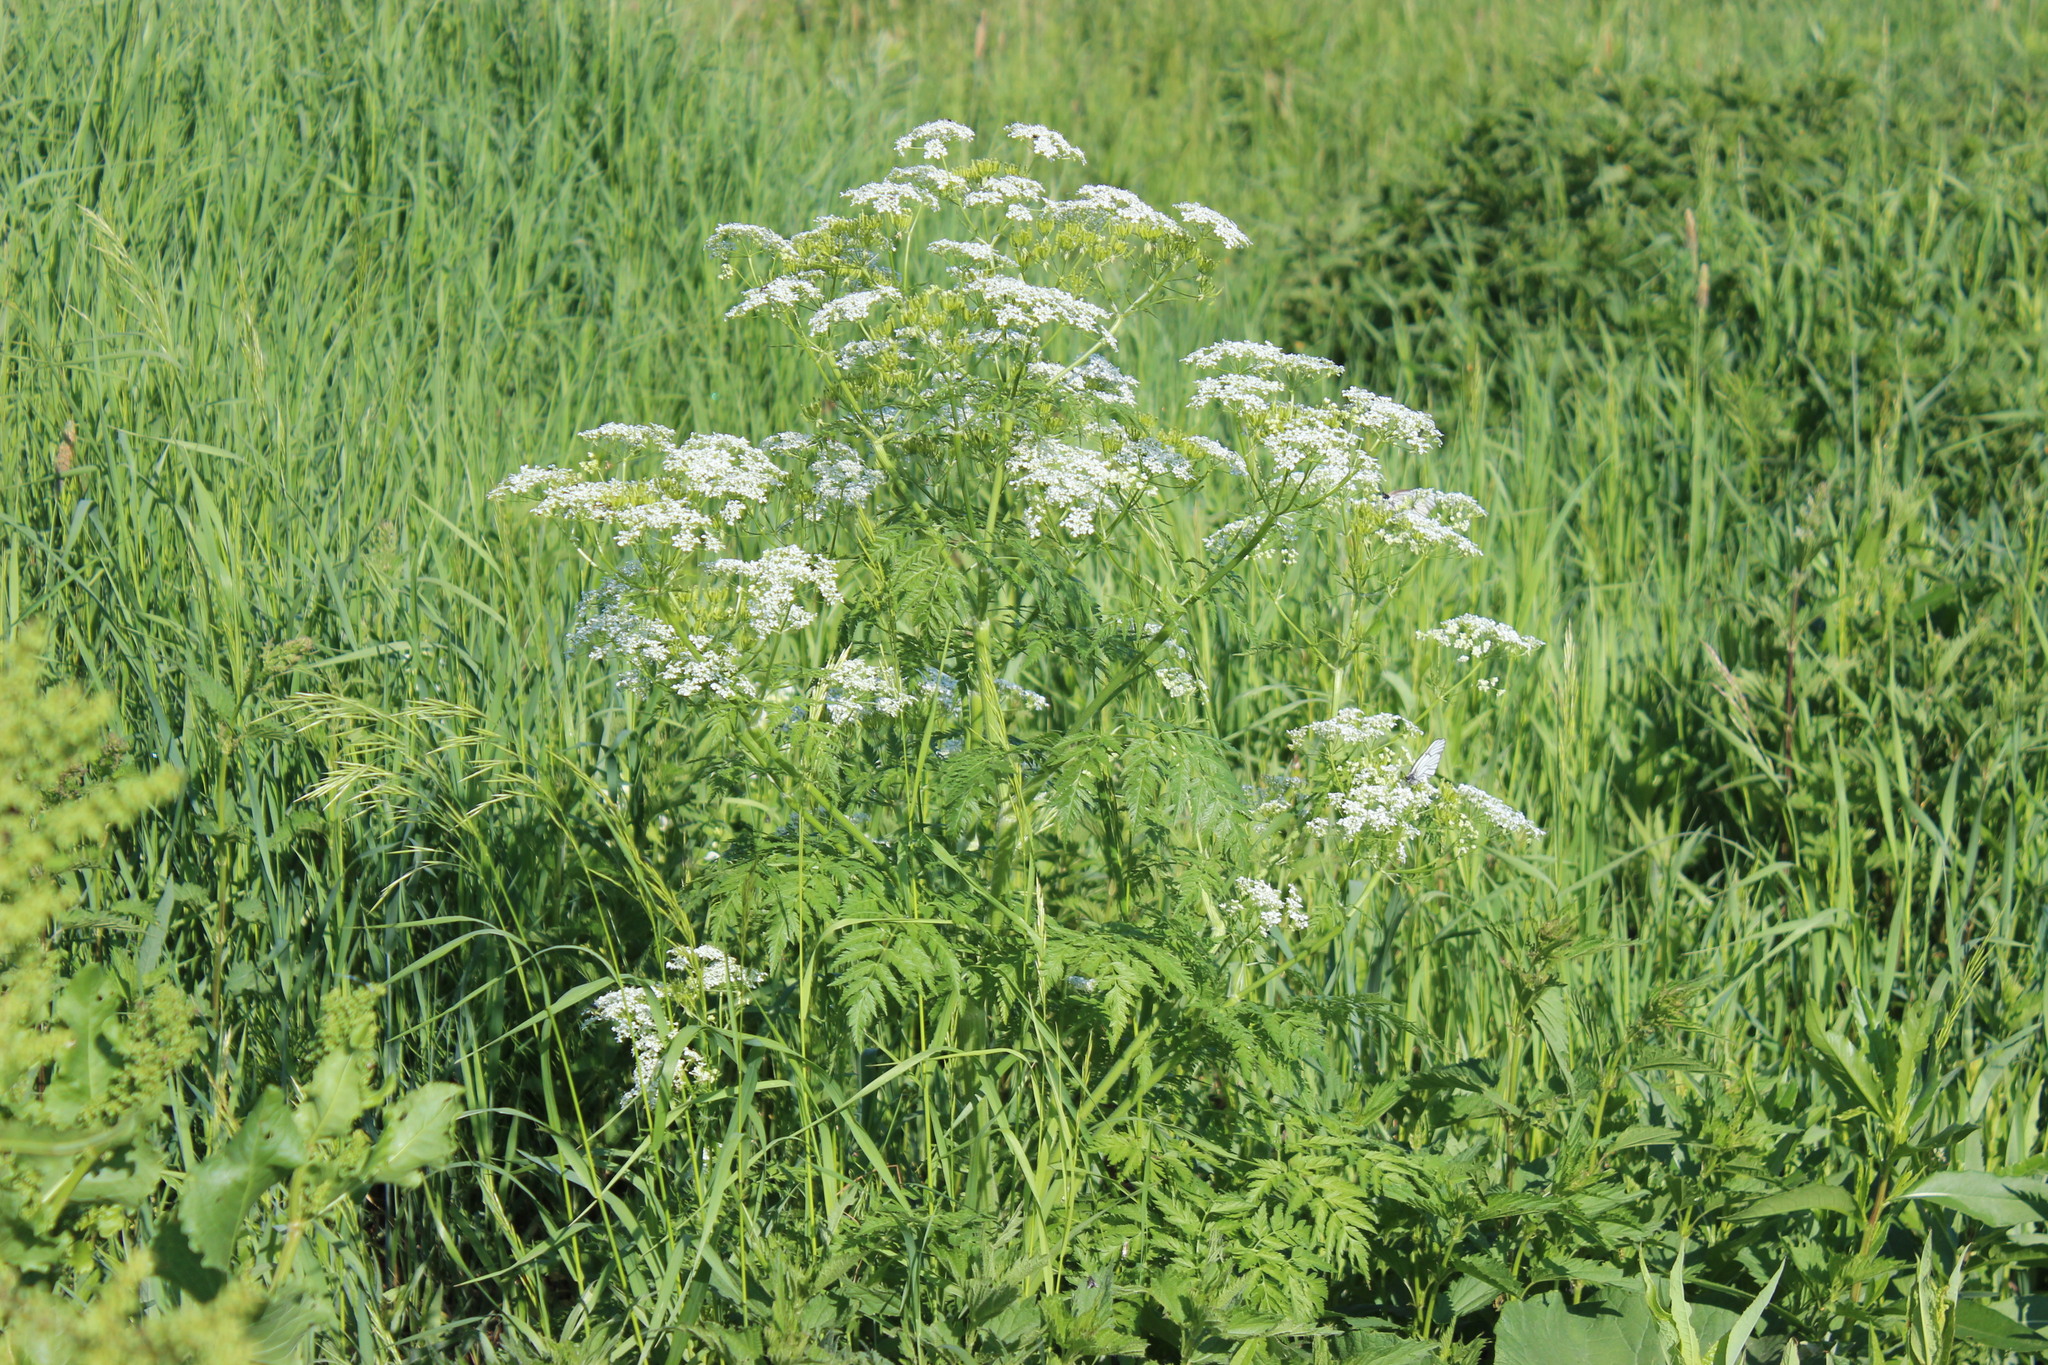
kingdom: Plantae
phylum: Tracheophyta
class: Magnoliopsida
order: Apiales
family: Apiaceae
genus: Anthriscus
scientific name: Anthriscus sylvestris
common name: Cow parsley
